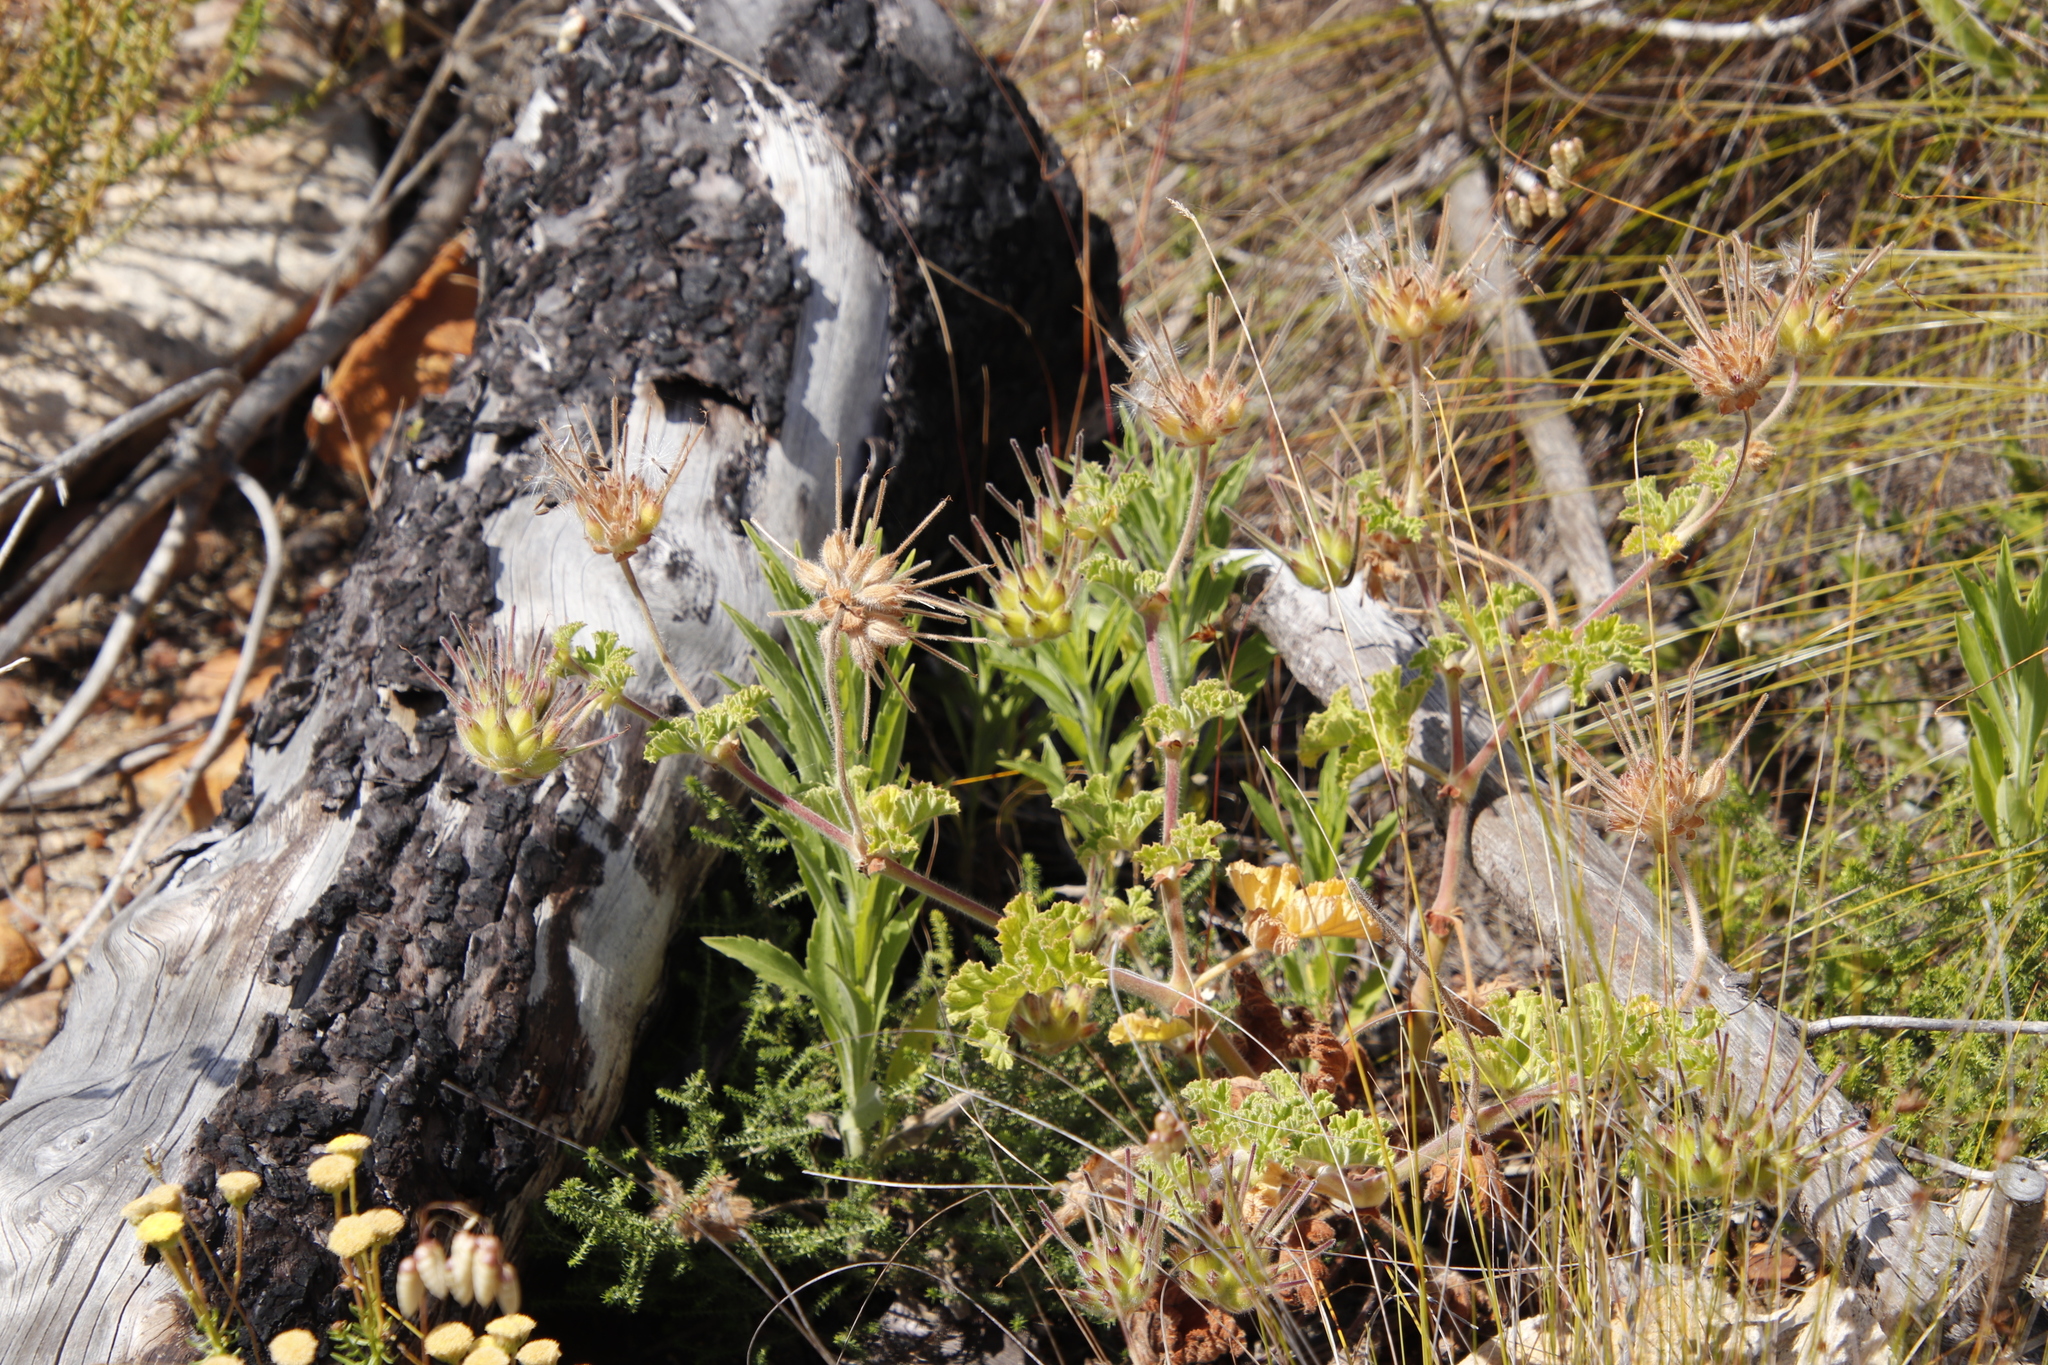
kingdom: Plantae
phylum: Tracheophyta
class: Magnoliopsida
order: Geraniales
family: Geraniaceae
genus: Pelargonium
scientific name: Pelargonium capitatum
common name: Rose scented geranium
